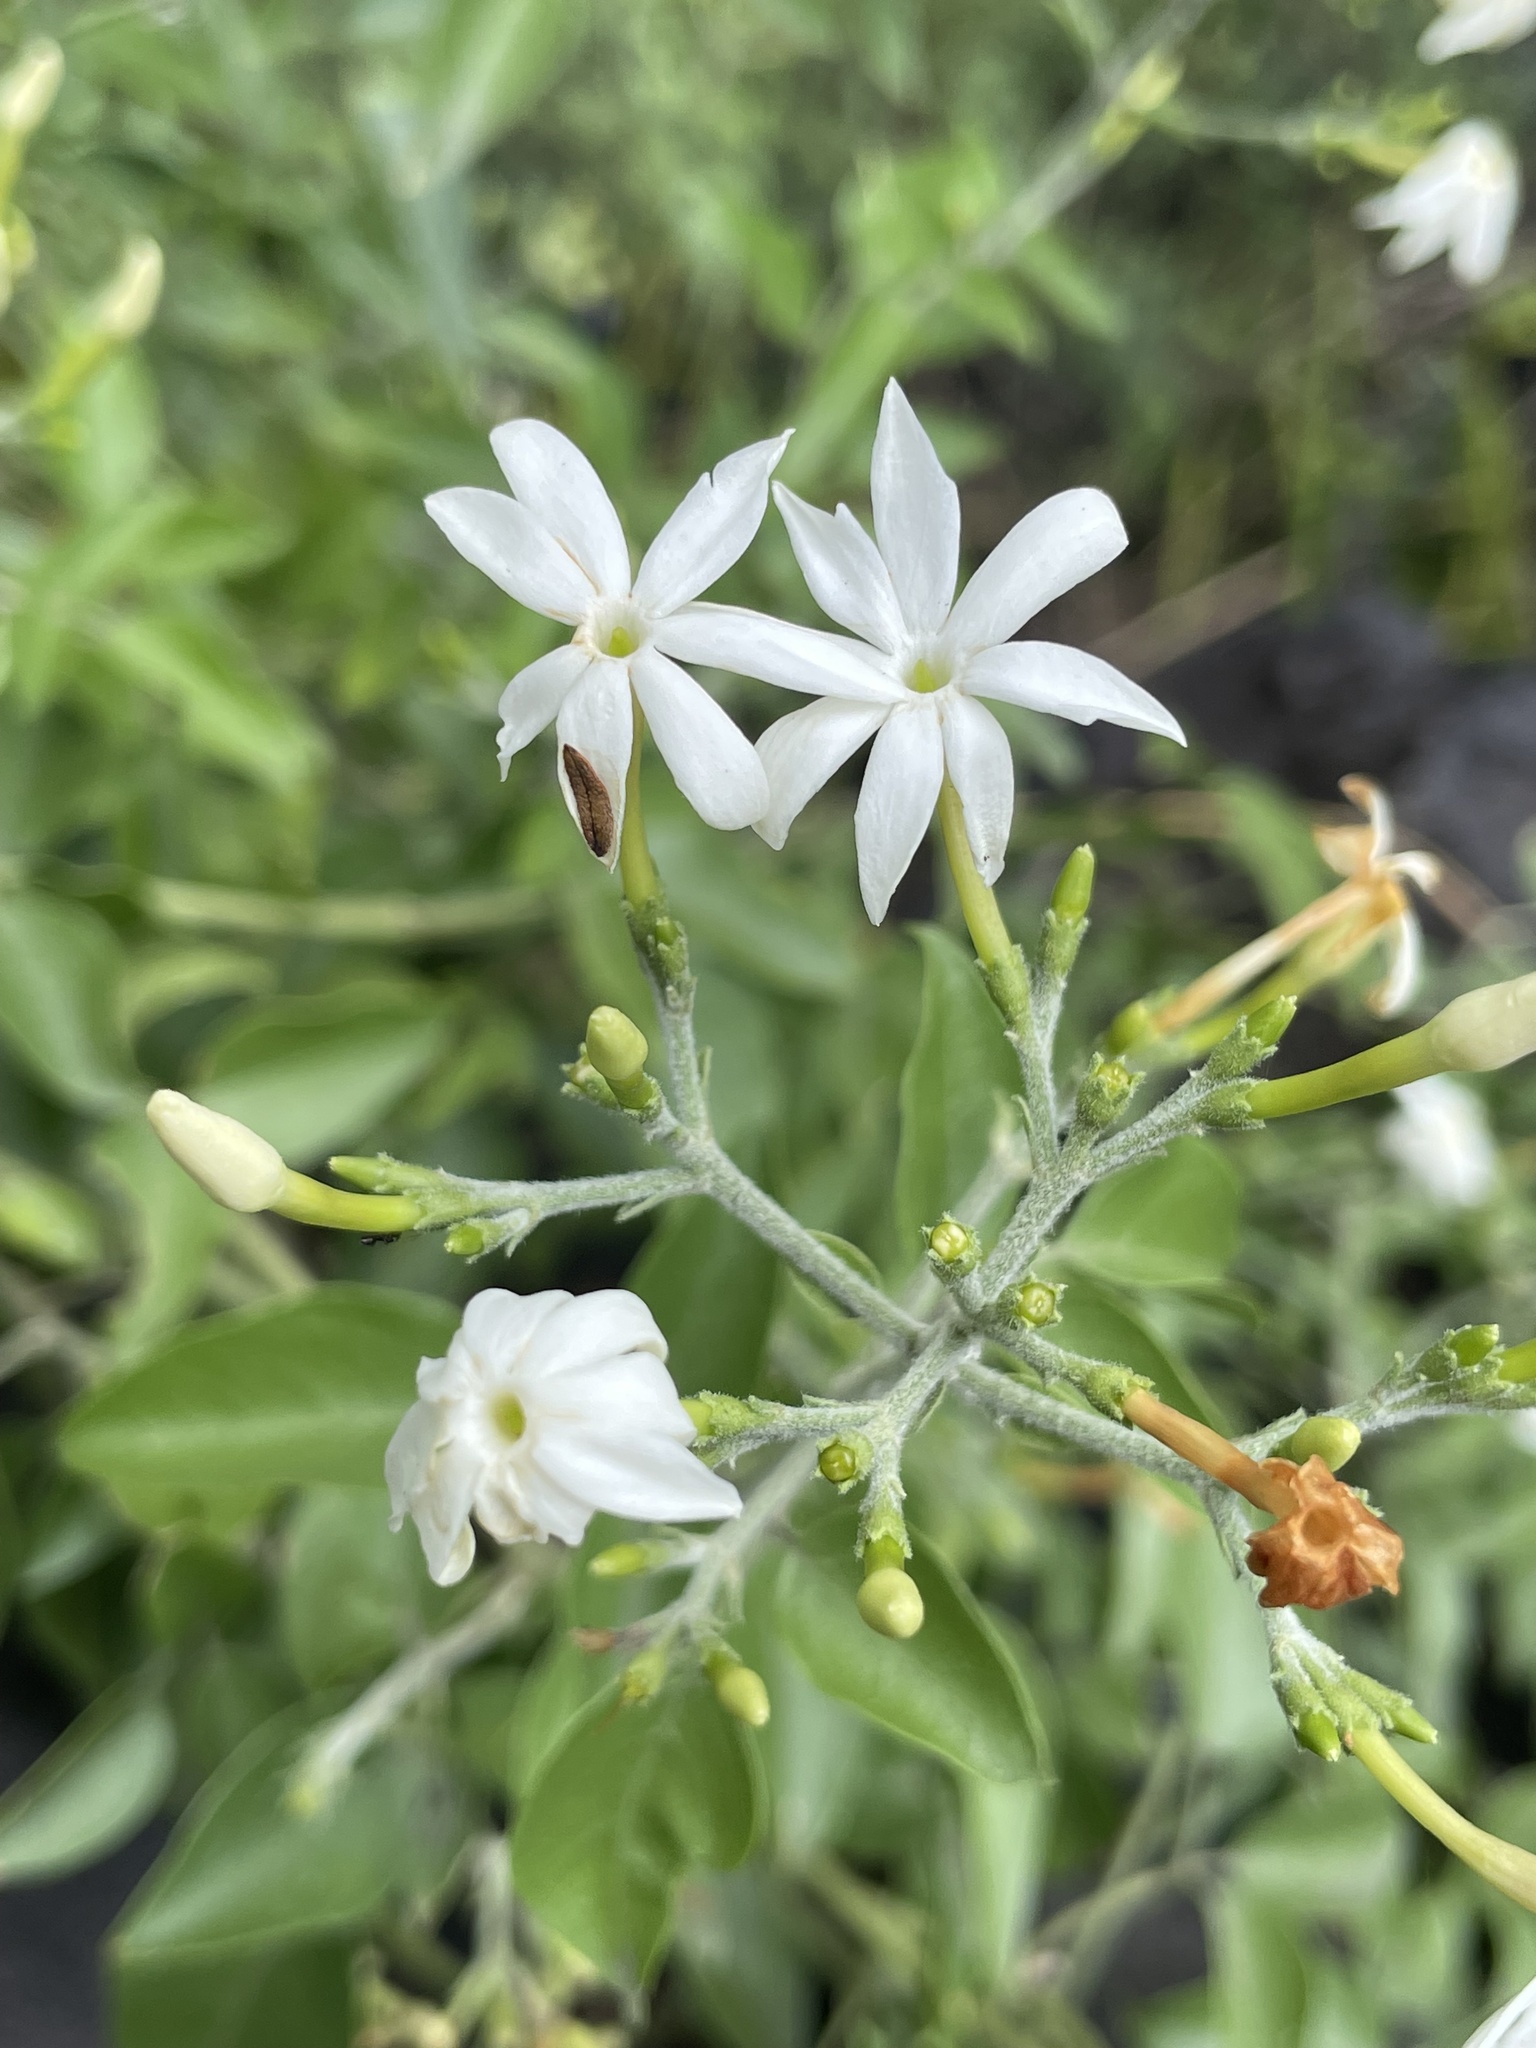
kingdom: Plantae
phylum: Tracheophyta
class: Magnoliopsida
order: Lamiales
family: Oleaceae
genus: Jasminum
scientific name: Jasminum multiflorum
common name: Star jasmine
